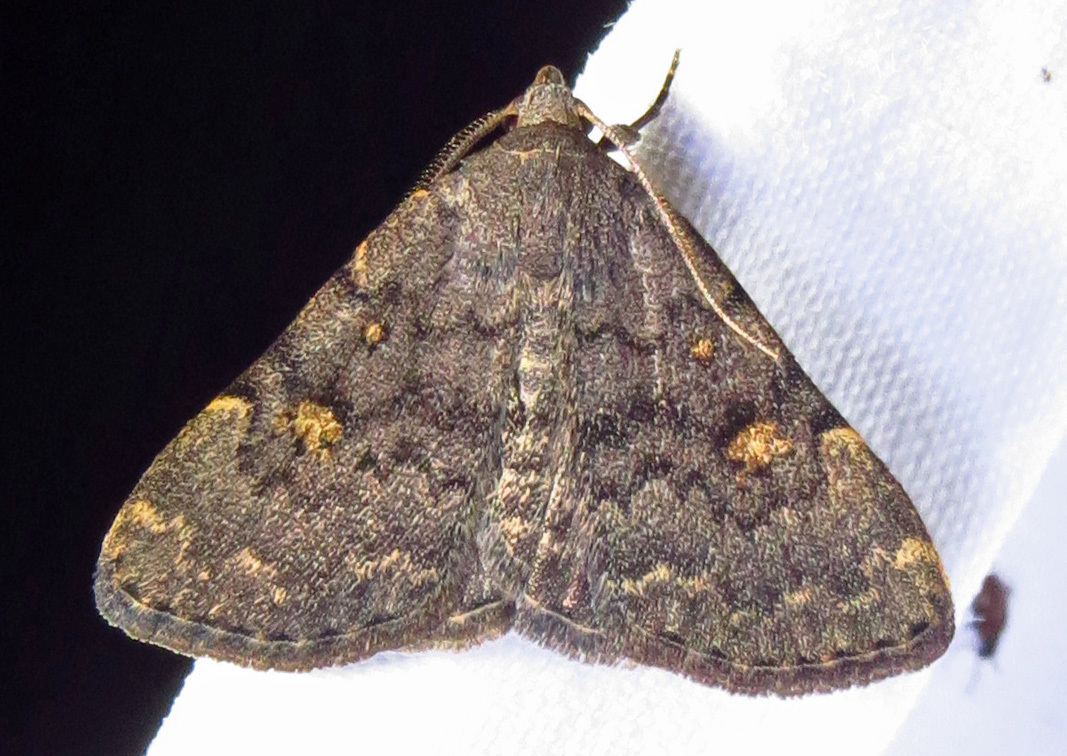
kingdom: Animalia
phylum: Arthropoda
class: Insecta
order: Lepidoptera
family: Erebidae
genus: Idia
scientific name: Idia aemula
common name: Common idia moth
